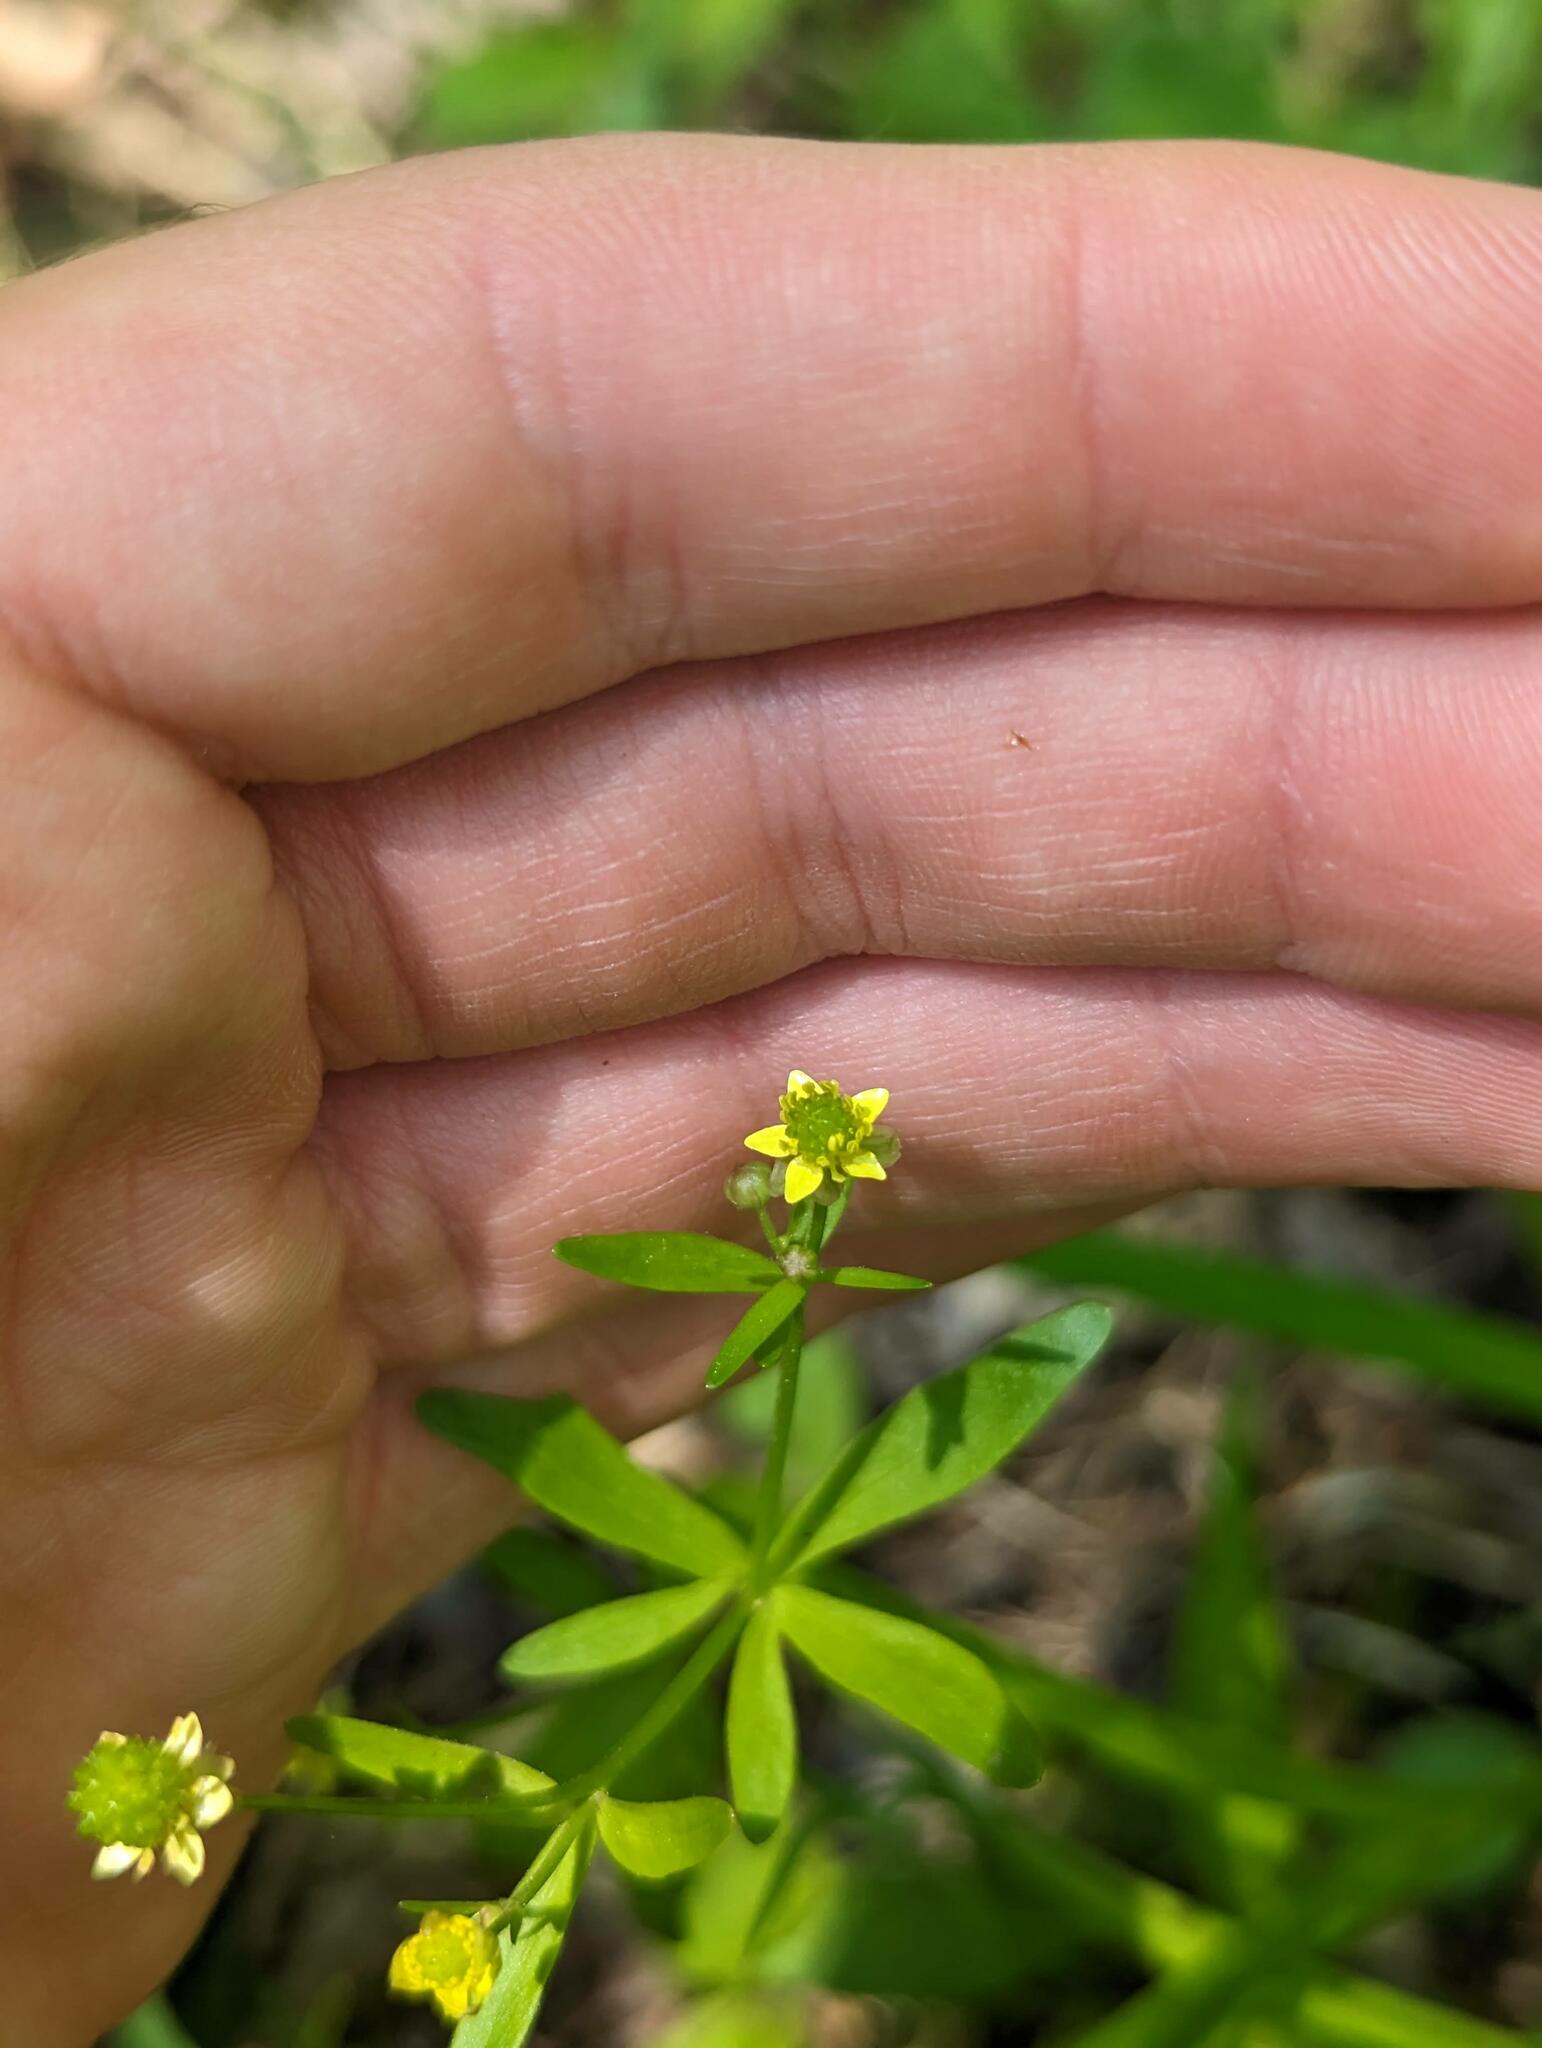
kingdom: Plantae
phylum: Tracheophyta
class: Magnoliopsida
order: Ranunculales
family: Ranunculaceae
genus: Ranunculus
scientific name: Ranunculus abortivus
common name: Early wood buttercup
